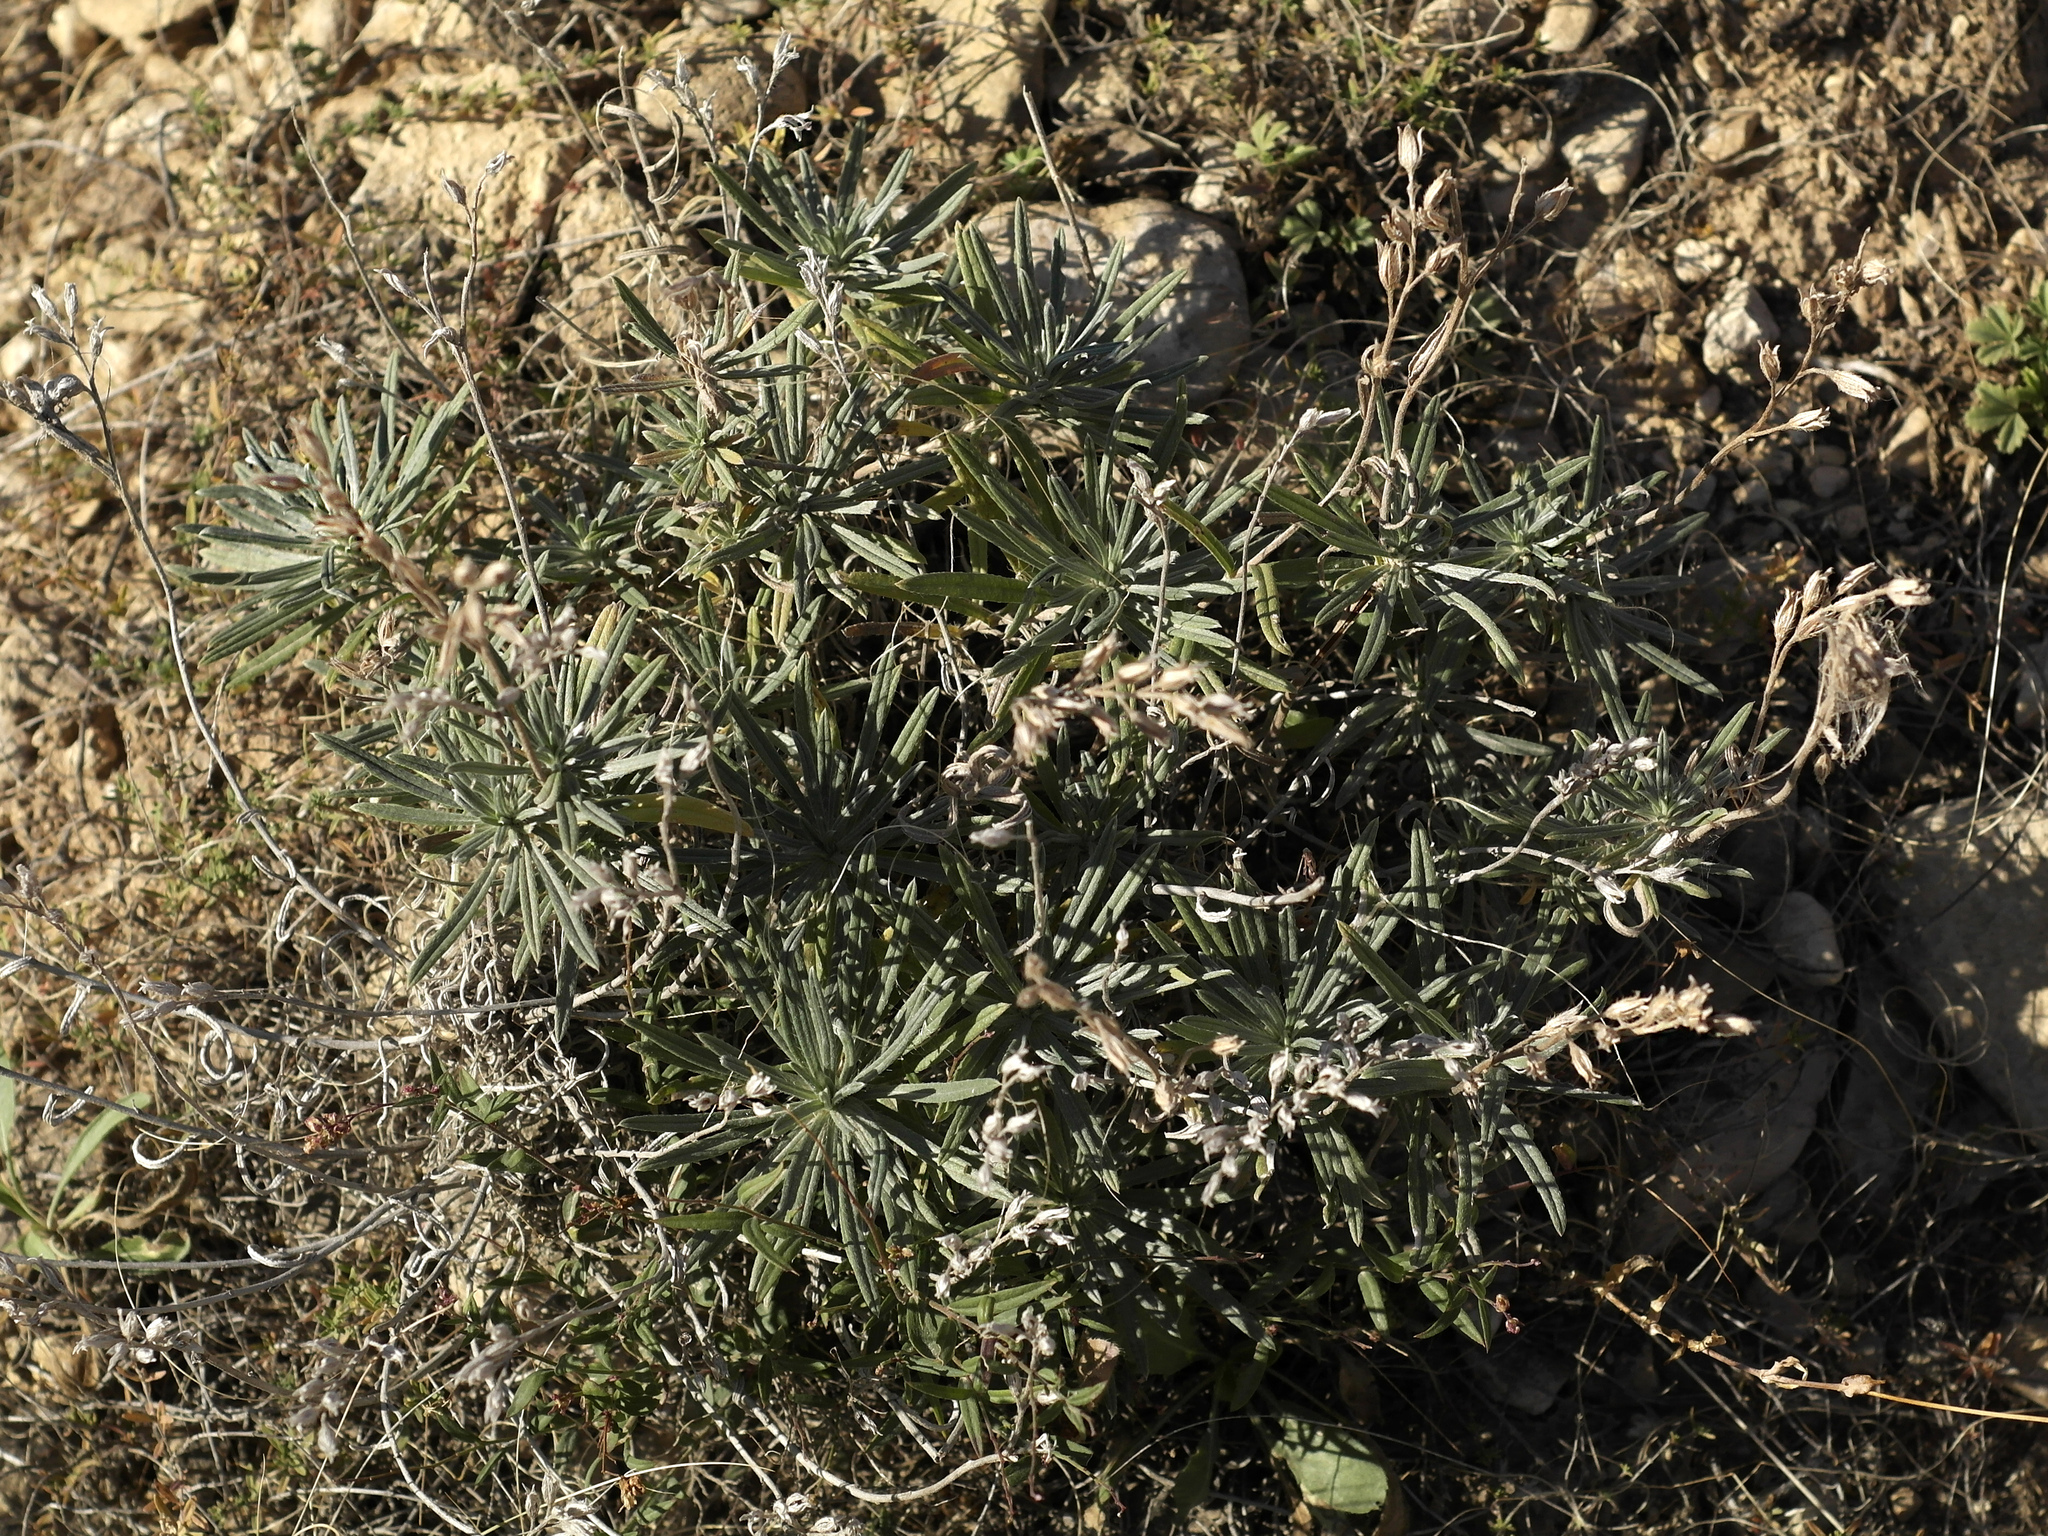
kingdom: Plantae
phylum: Tracheophyta
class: Magnoliopsida
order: Boraginales
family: Boraginaceae
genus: Onosma
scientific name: Onosma simplicissima
